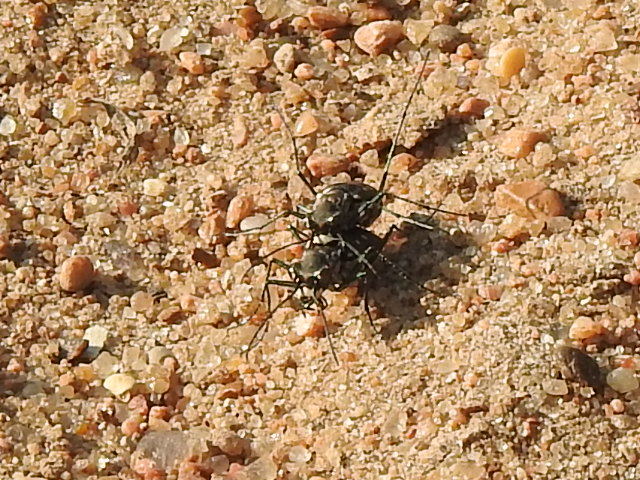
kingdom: Animalia
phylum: Arthropoda
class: Insecta
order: Coleoptera
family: Carabidae
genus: Cicindela
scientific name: Cicindela ocellata
